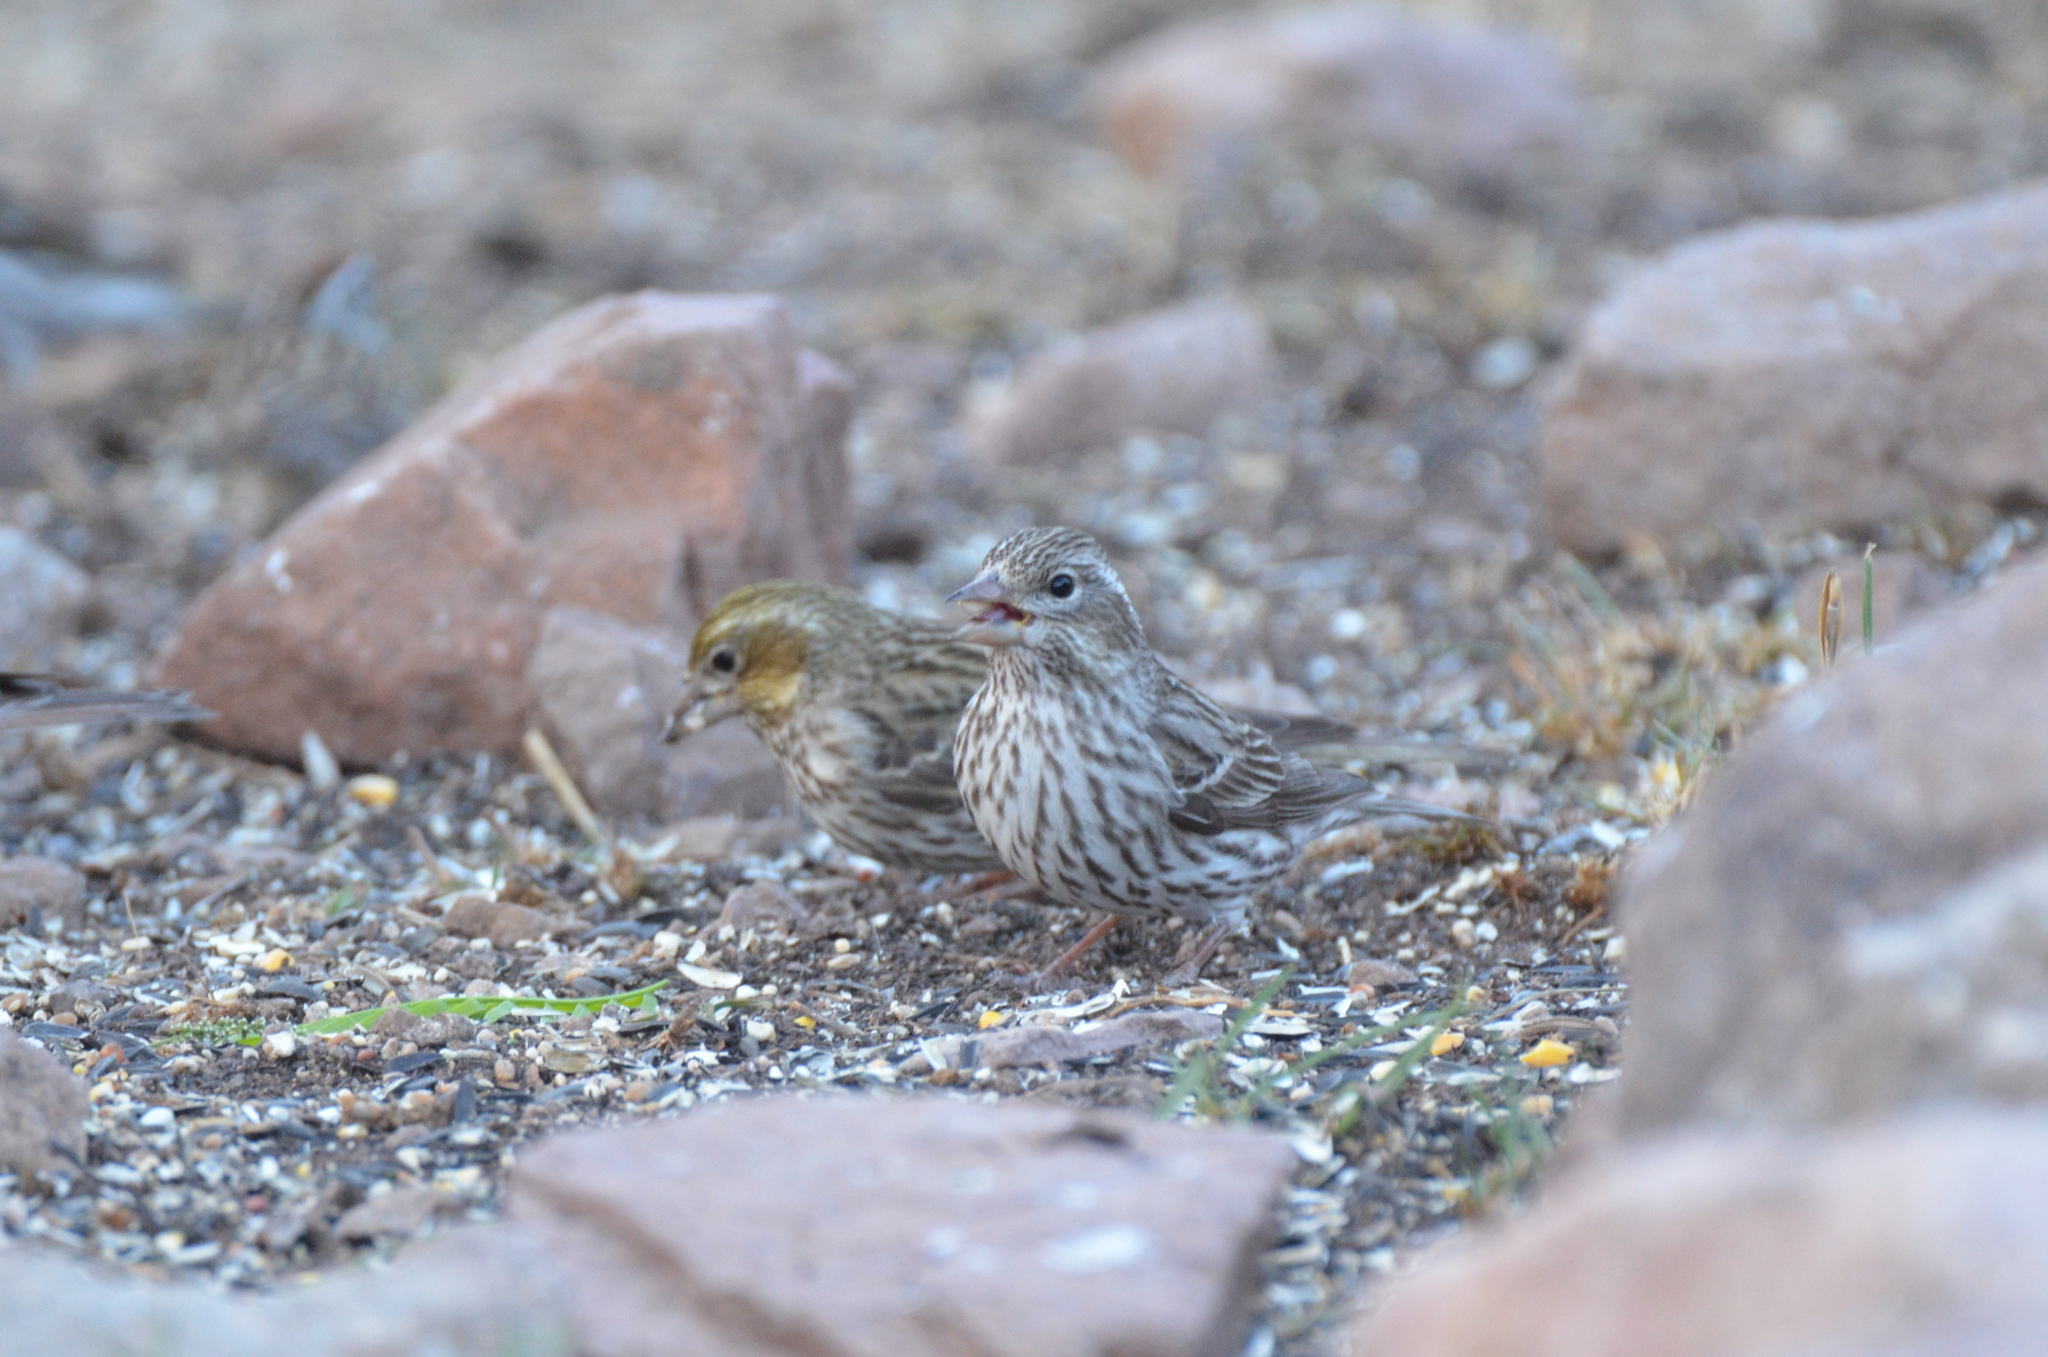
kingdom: Animalia
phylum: Chordata
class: Aves
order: Passeriformes
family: Fringillidae
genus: Haemorhous
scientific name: Haemorhous cassinii
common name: Cassin's finch
